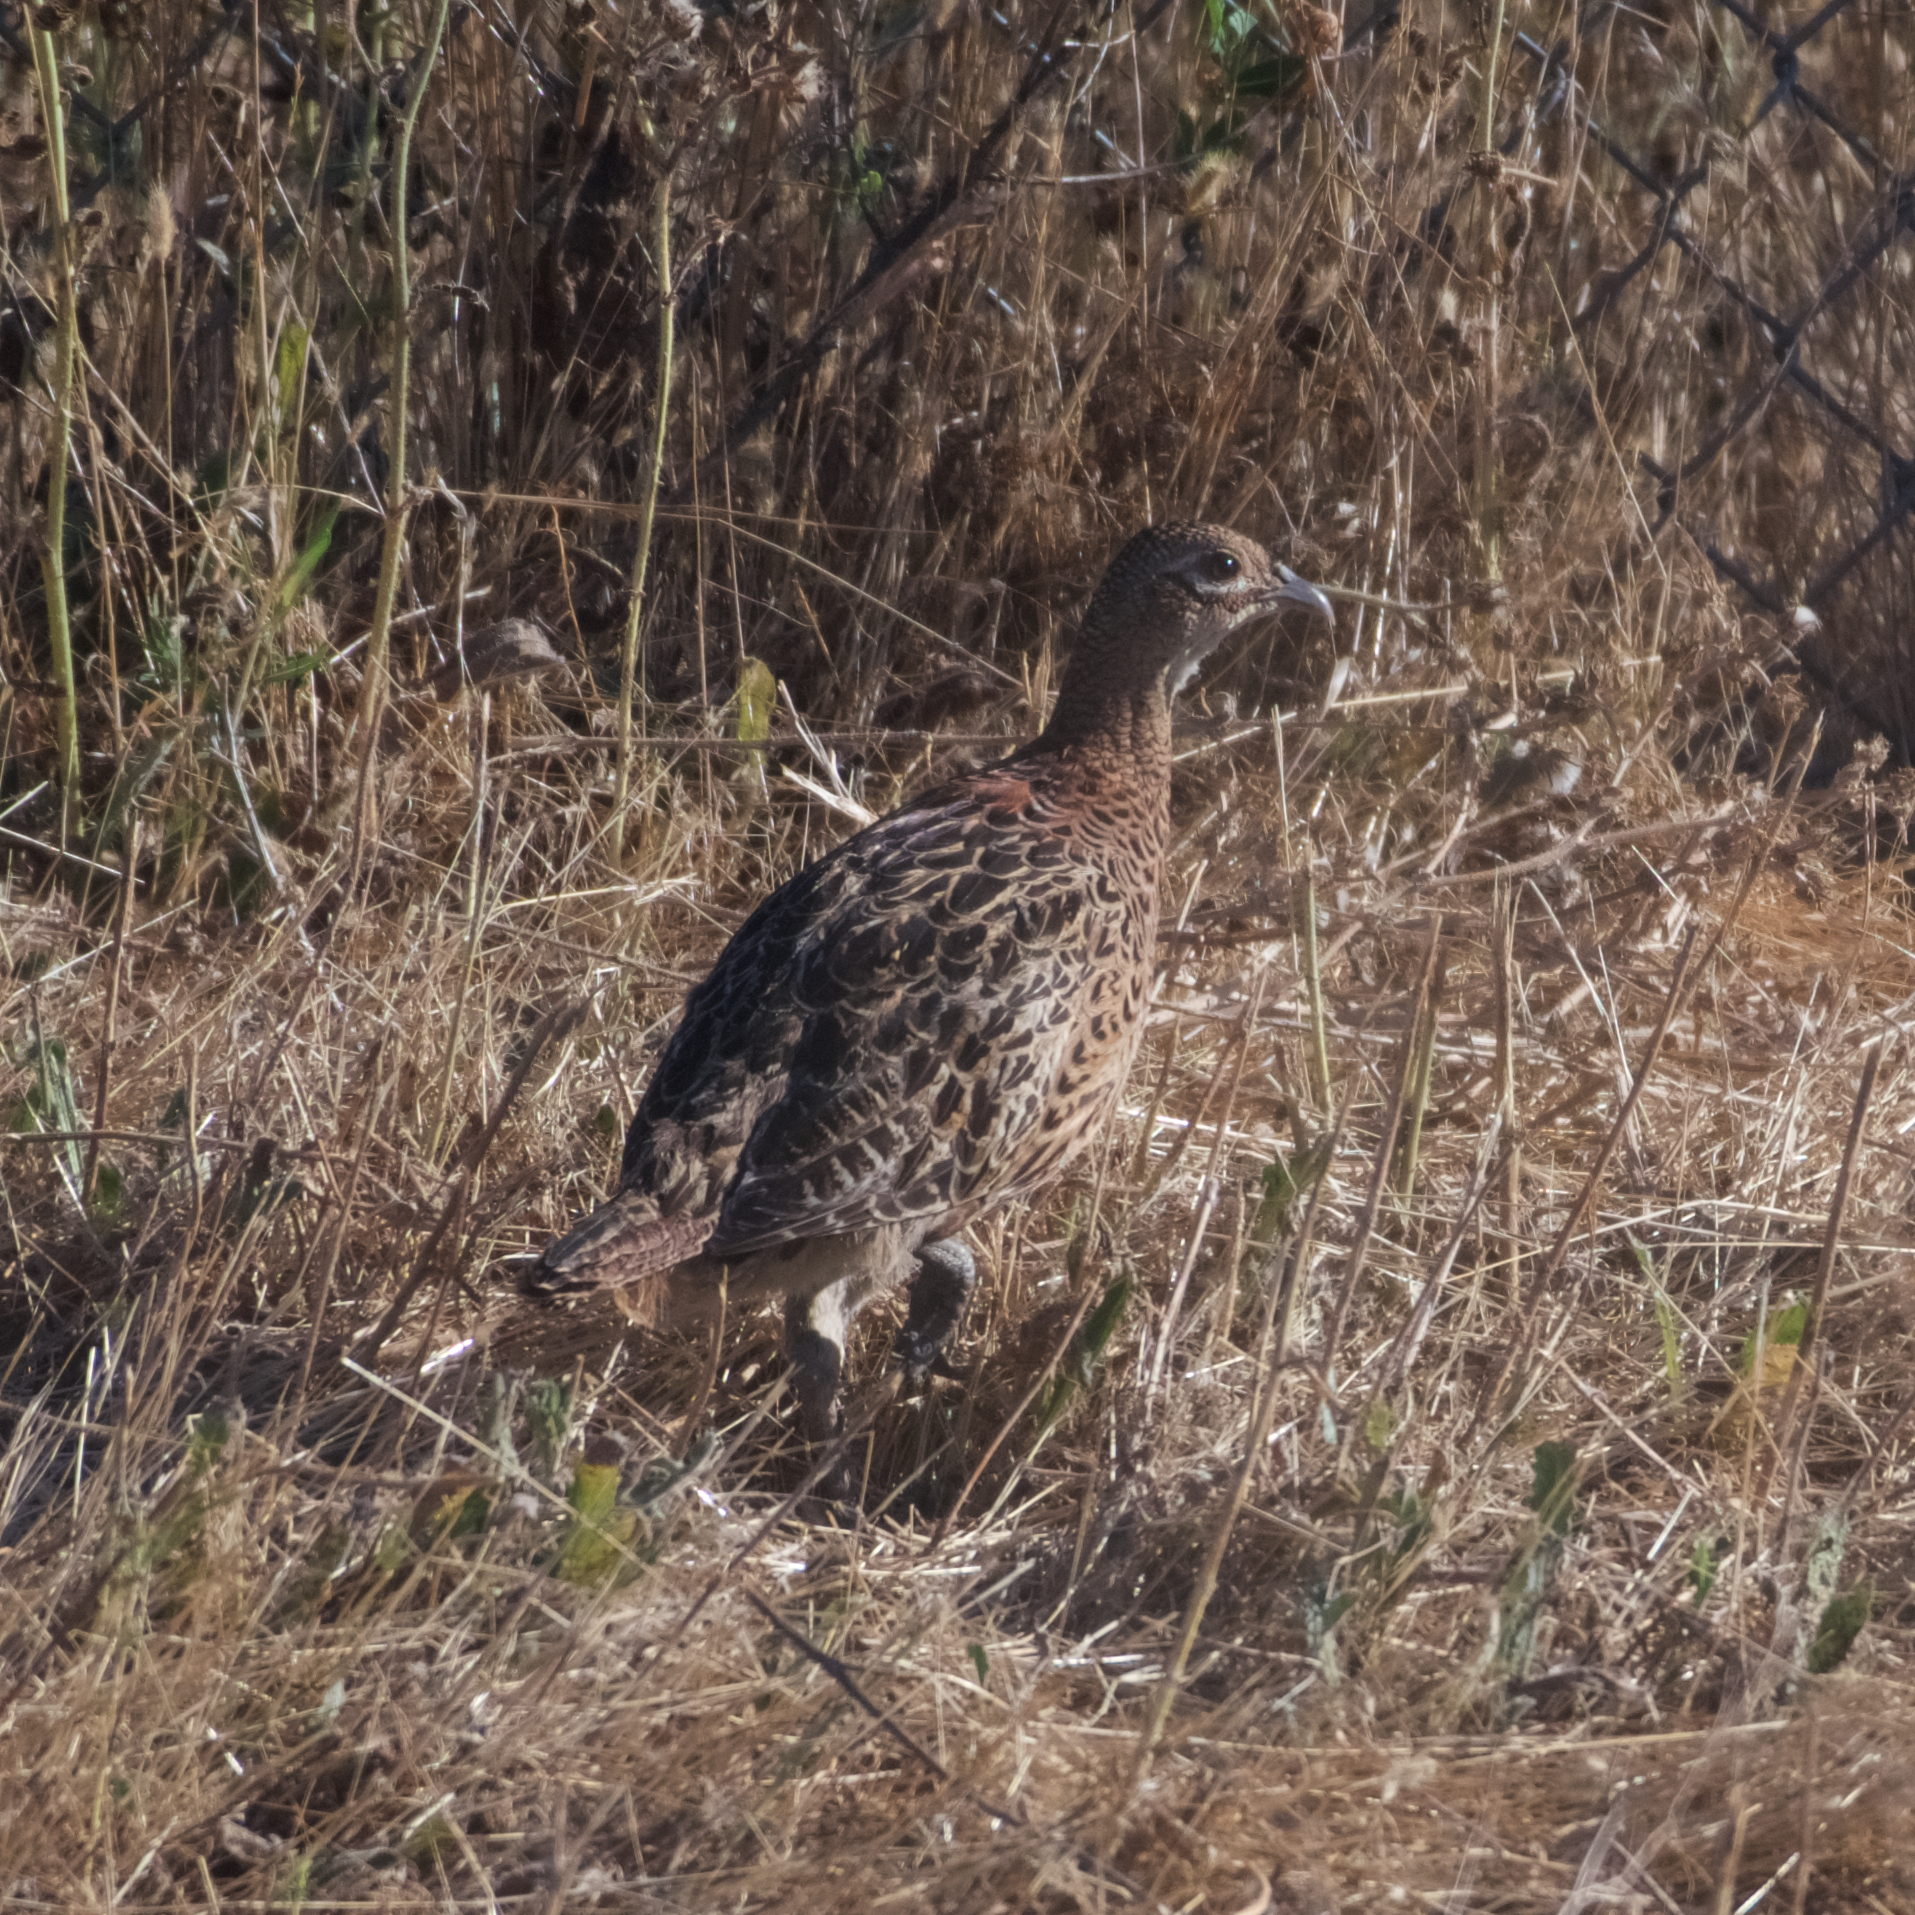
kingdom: Animalia
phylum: Chordata
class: Aves
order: Galliformes
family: Phasianidae
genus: Phasianus
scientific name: Phasianus colchicus
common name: Common pheasant
